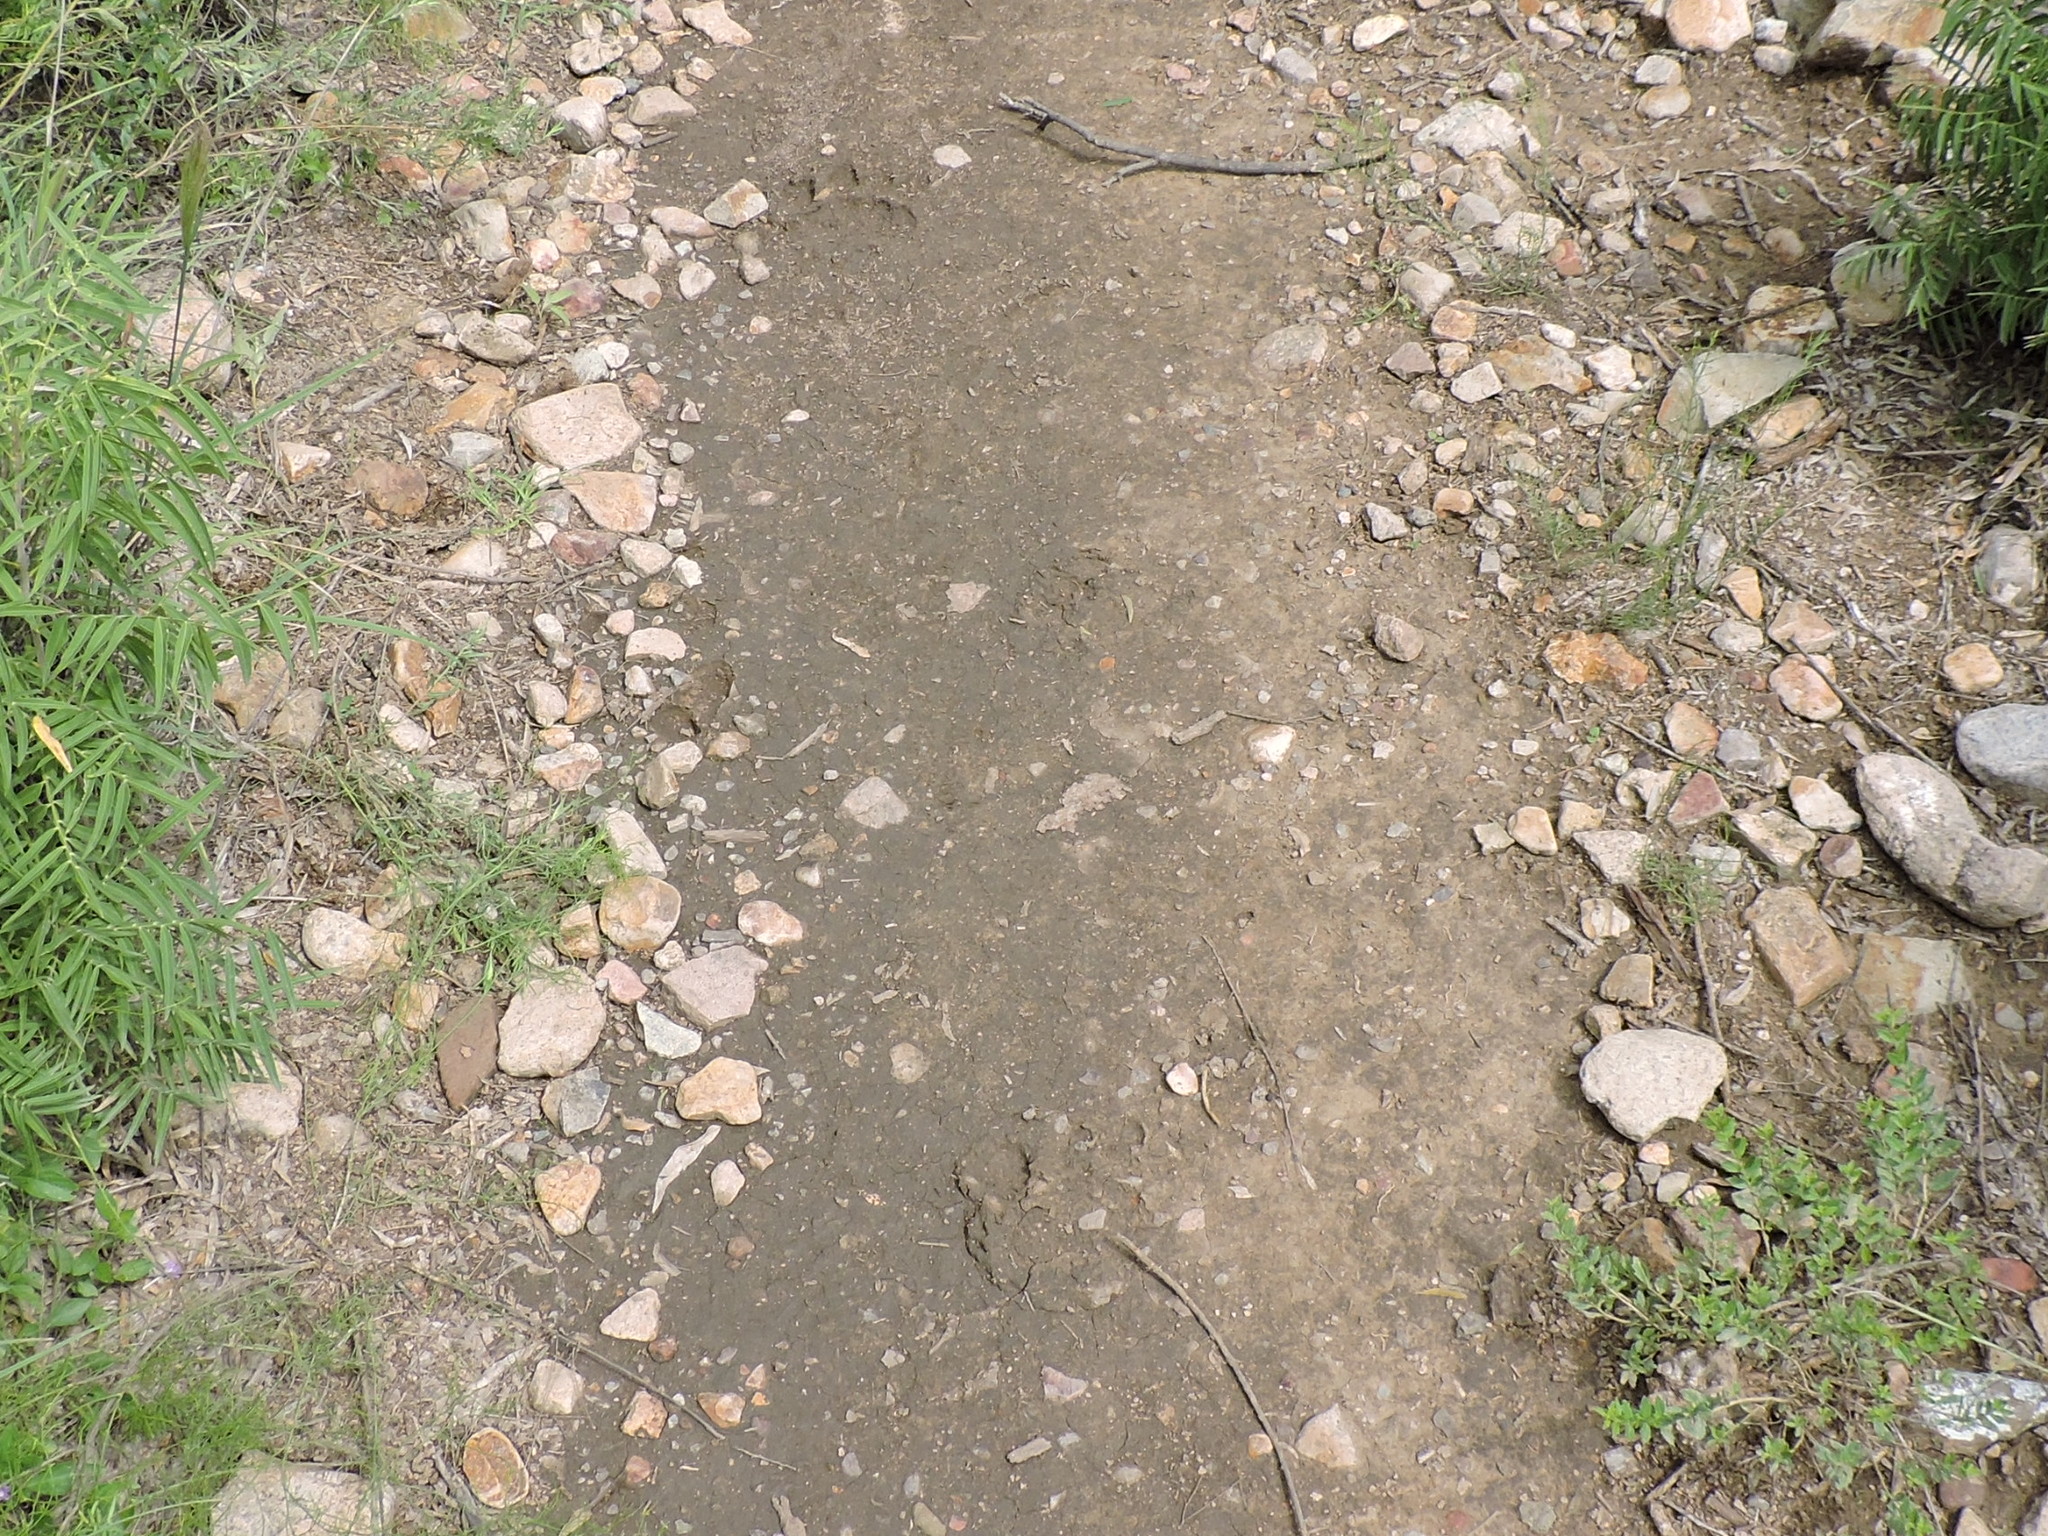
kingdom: Animalia
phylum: Chordata
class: Mammalia
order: Carnivora
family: Ursidae
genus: Ursus
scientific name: Ursus americanus
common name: American black bear
